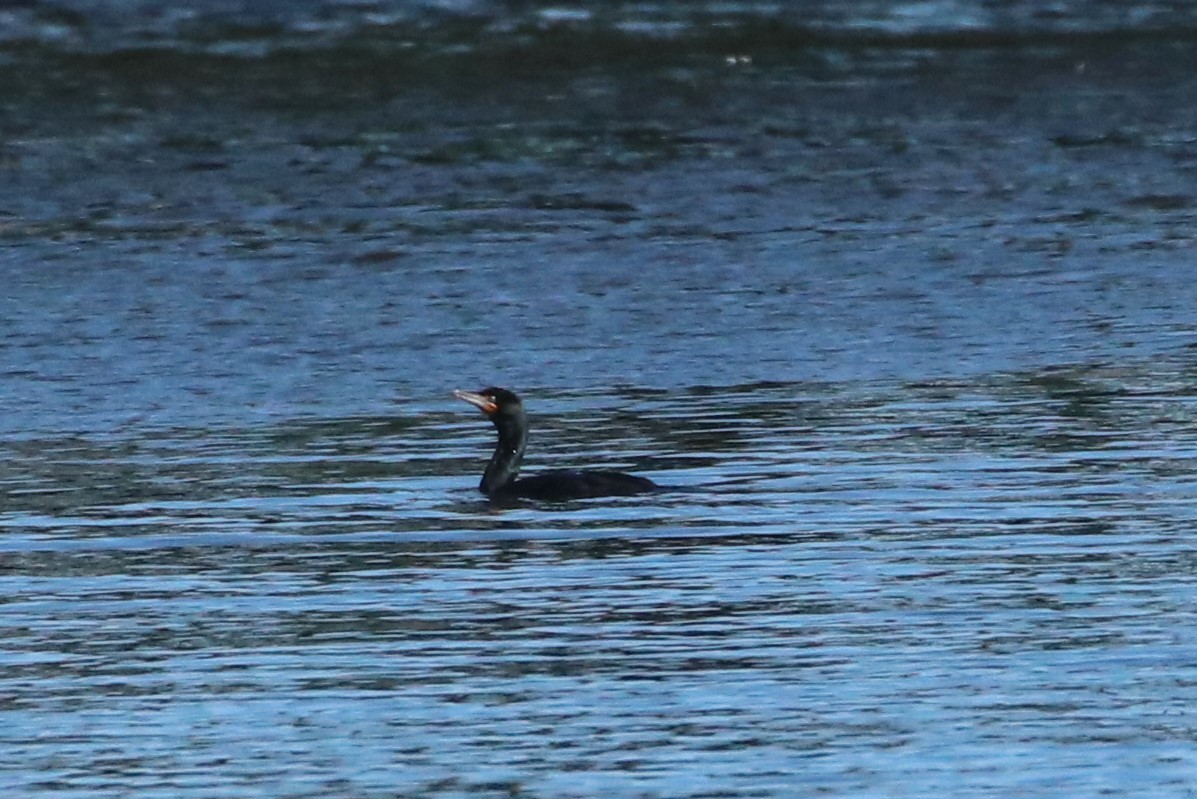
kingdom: Animalia
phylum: Chordata
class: Aves
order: Suliformes
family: Phalacrocoracidae
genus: Phalacrocorax
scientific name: Phalacrocorax auritus
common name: Double-crested cormorant
